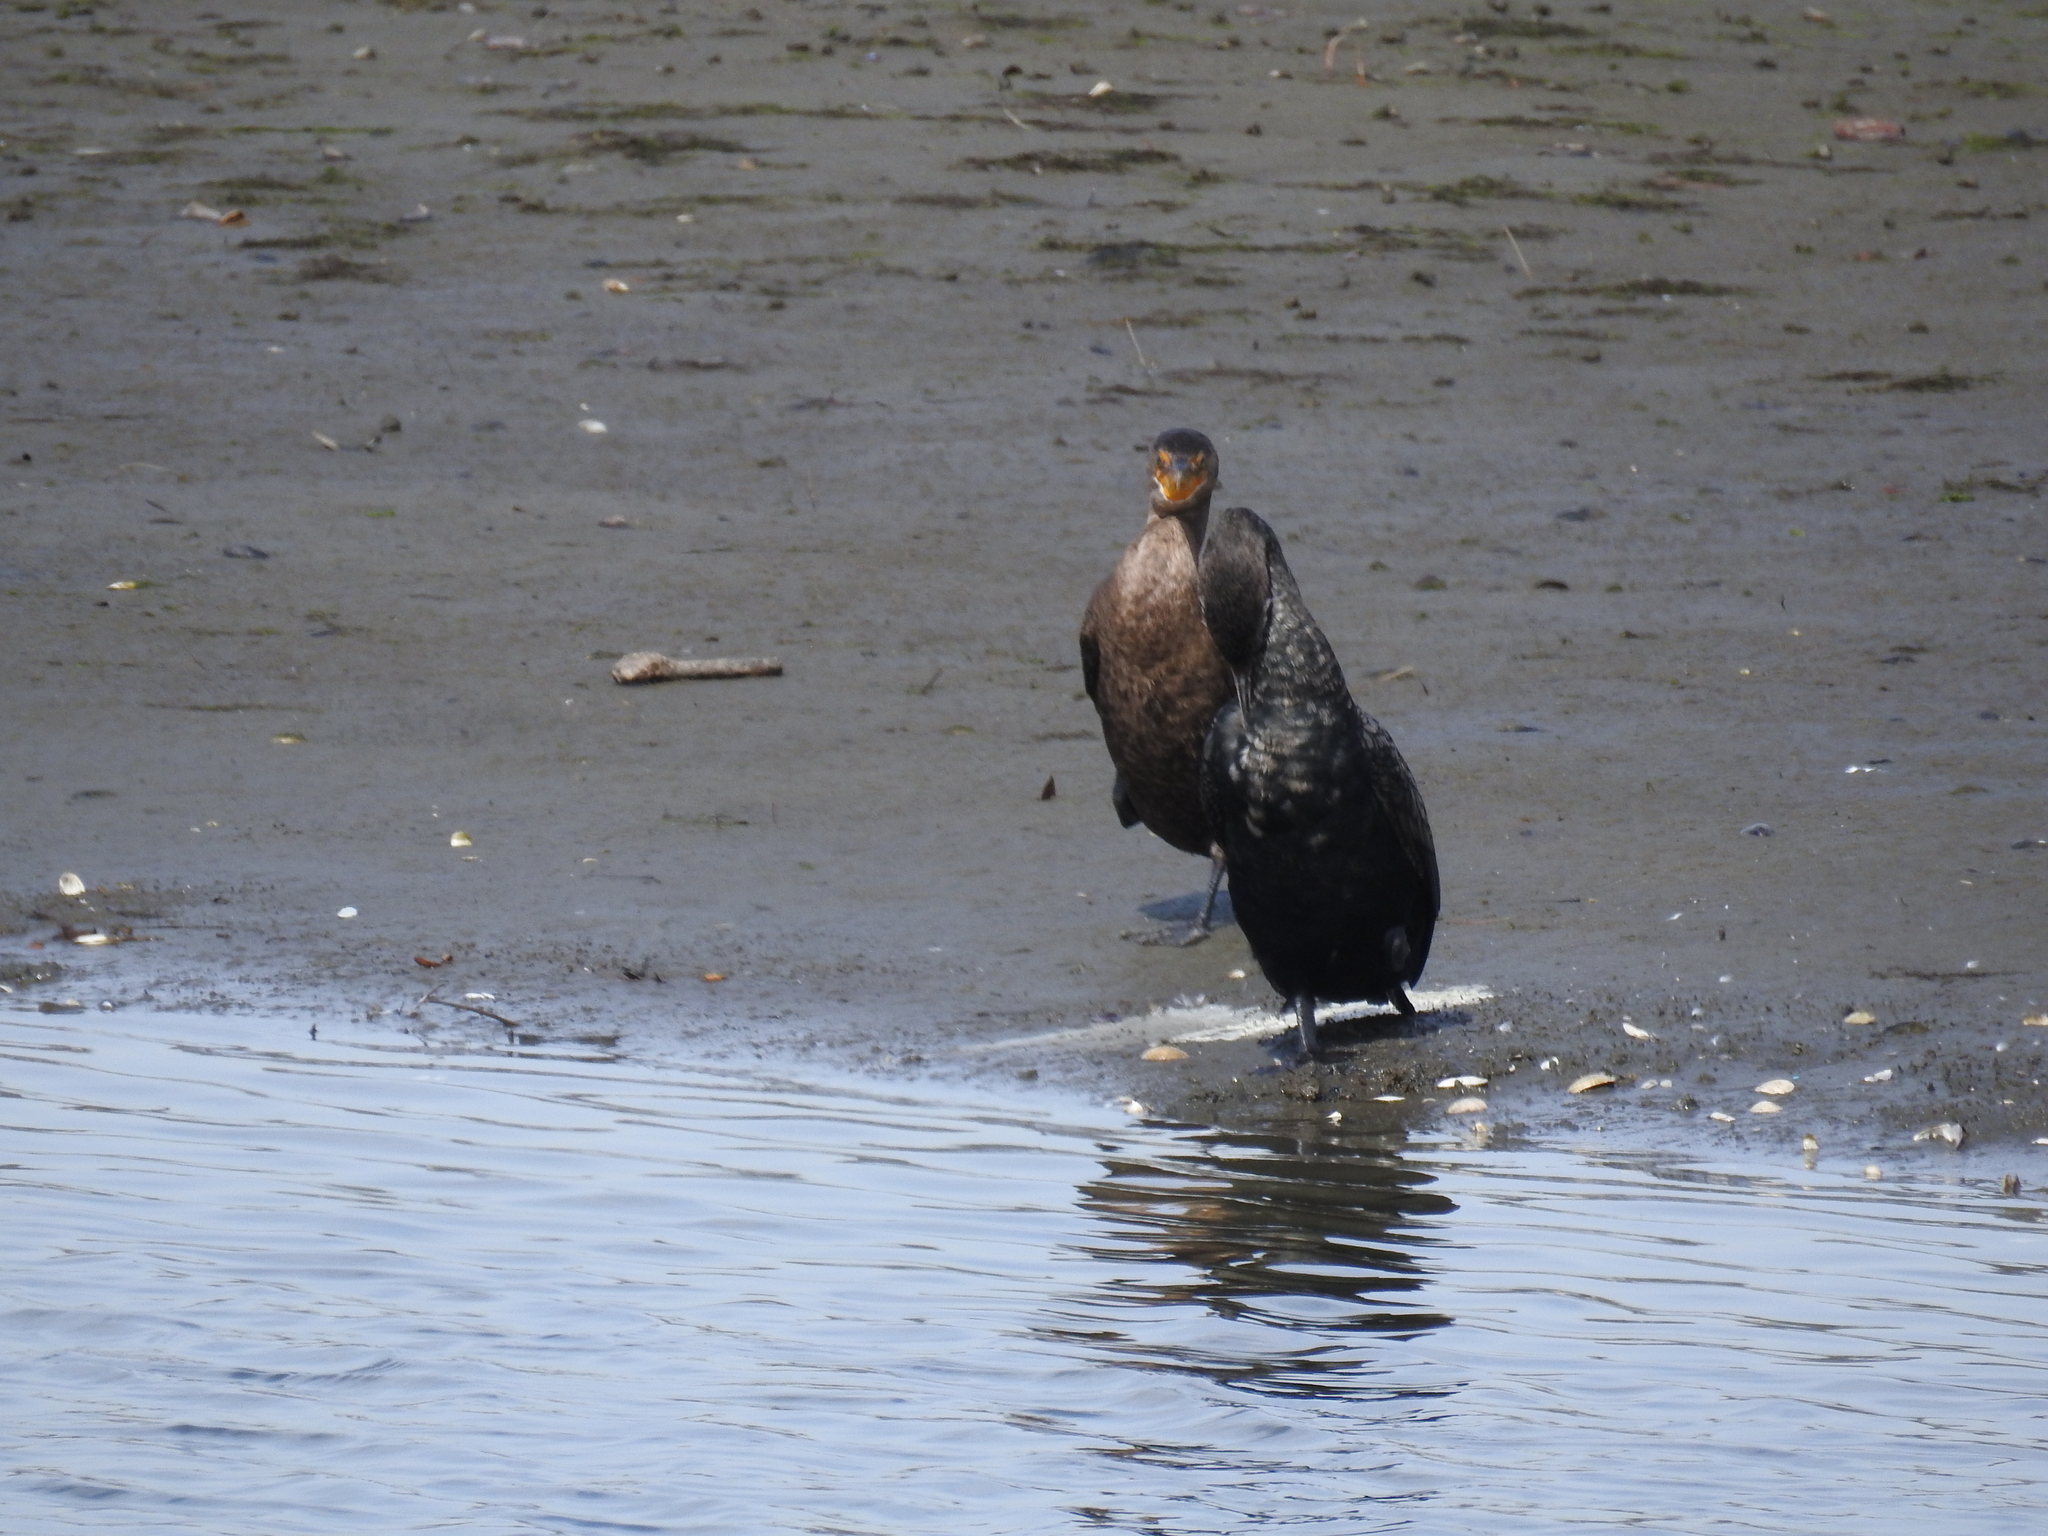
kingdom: Animalia
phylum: Chordata
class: Aves
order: Suliformes
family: Phalacrocoracidae
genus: Phalacrocorax
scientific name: Phalacrocorax auritus
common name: Double-crested cormorant
